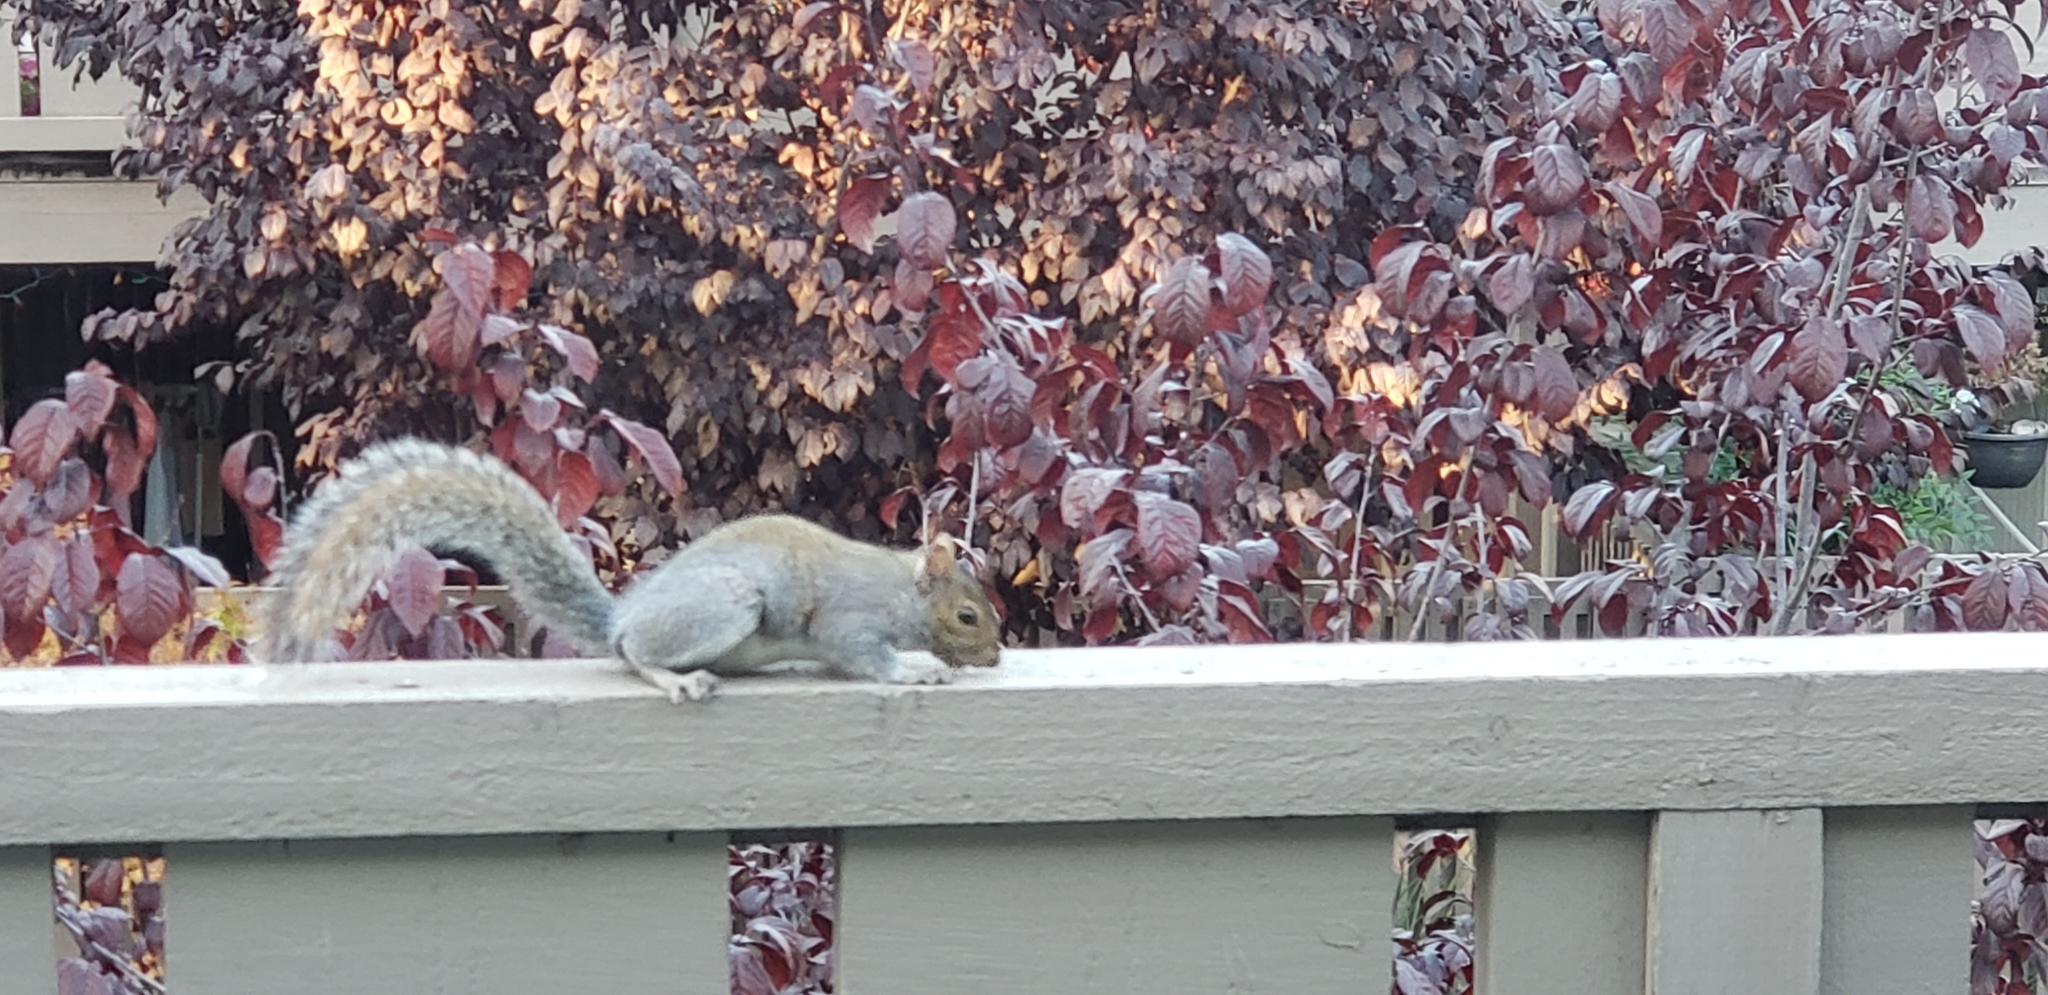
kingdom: Animalia
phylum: Chordata
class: Mammalia
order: Rodentia
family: Sciuridae
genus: Sciurus
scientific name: Sciurus carolinensis
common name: Eastern gray squirrel
